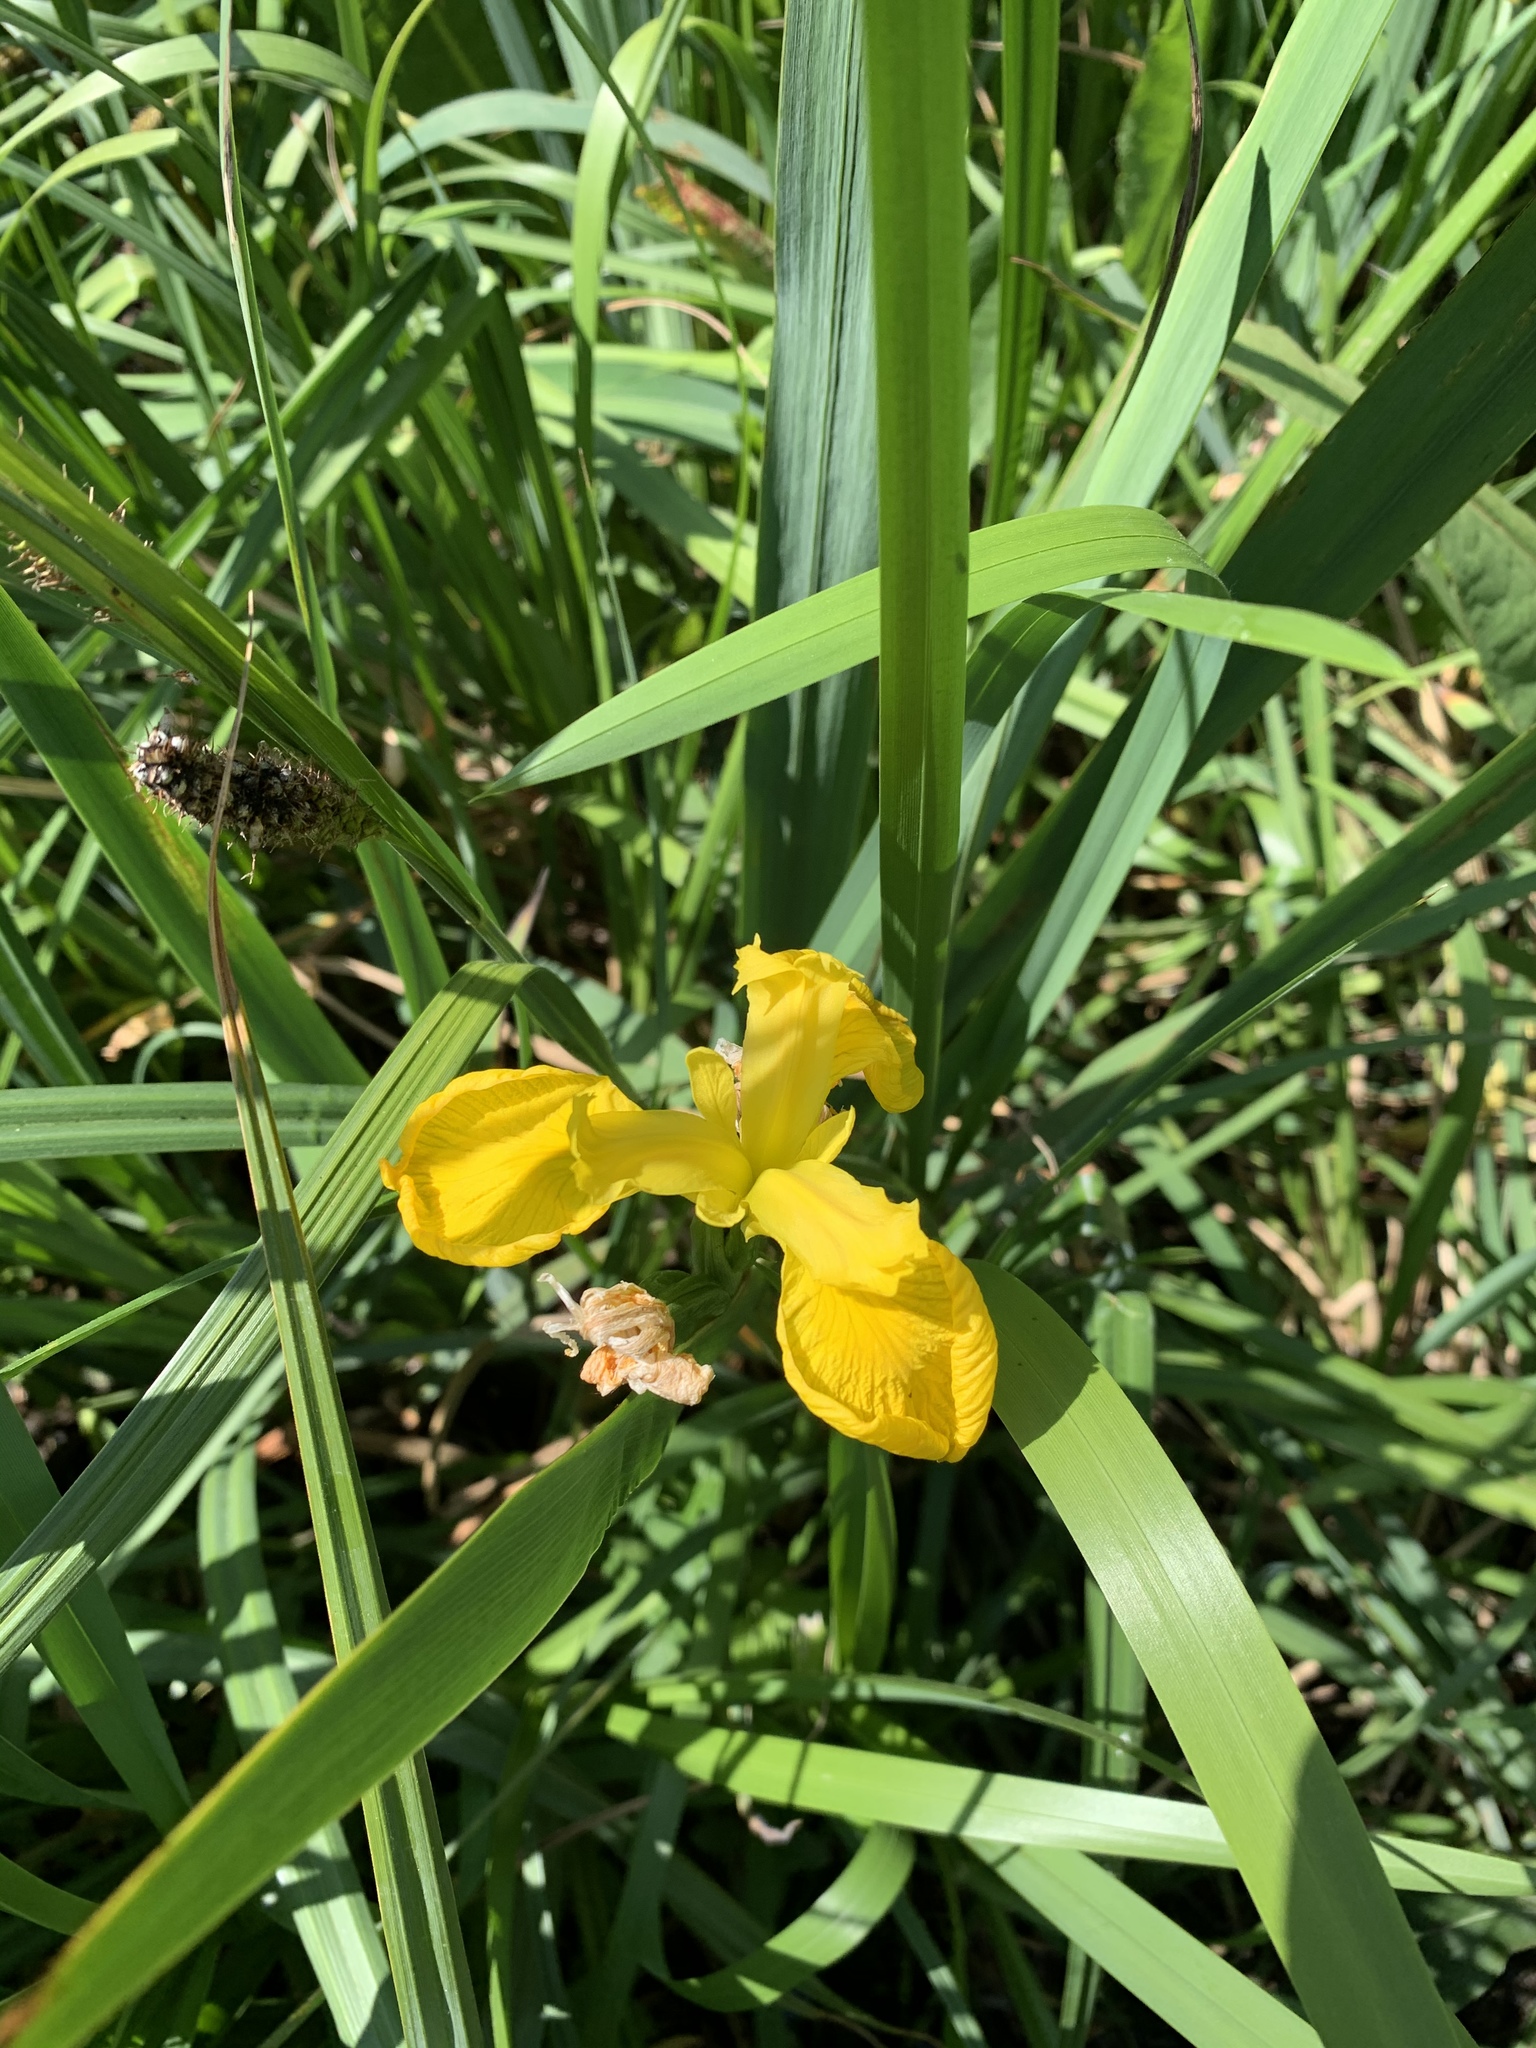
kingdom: Plantae
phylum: Tracheophyta
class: Liliopsida
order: Asparagales
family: Iridaceae
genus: Iris
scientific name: Iris pseudacorus
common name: Yellow flag
